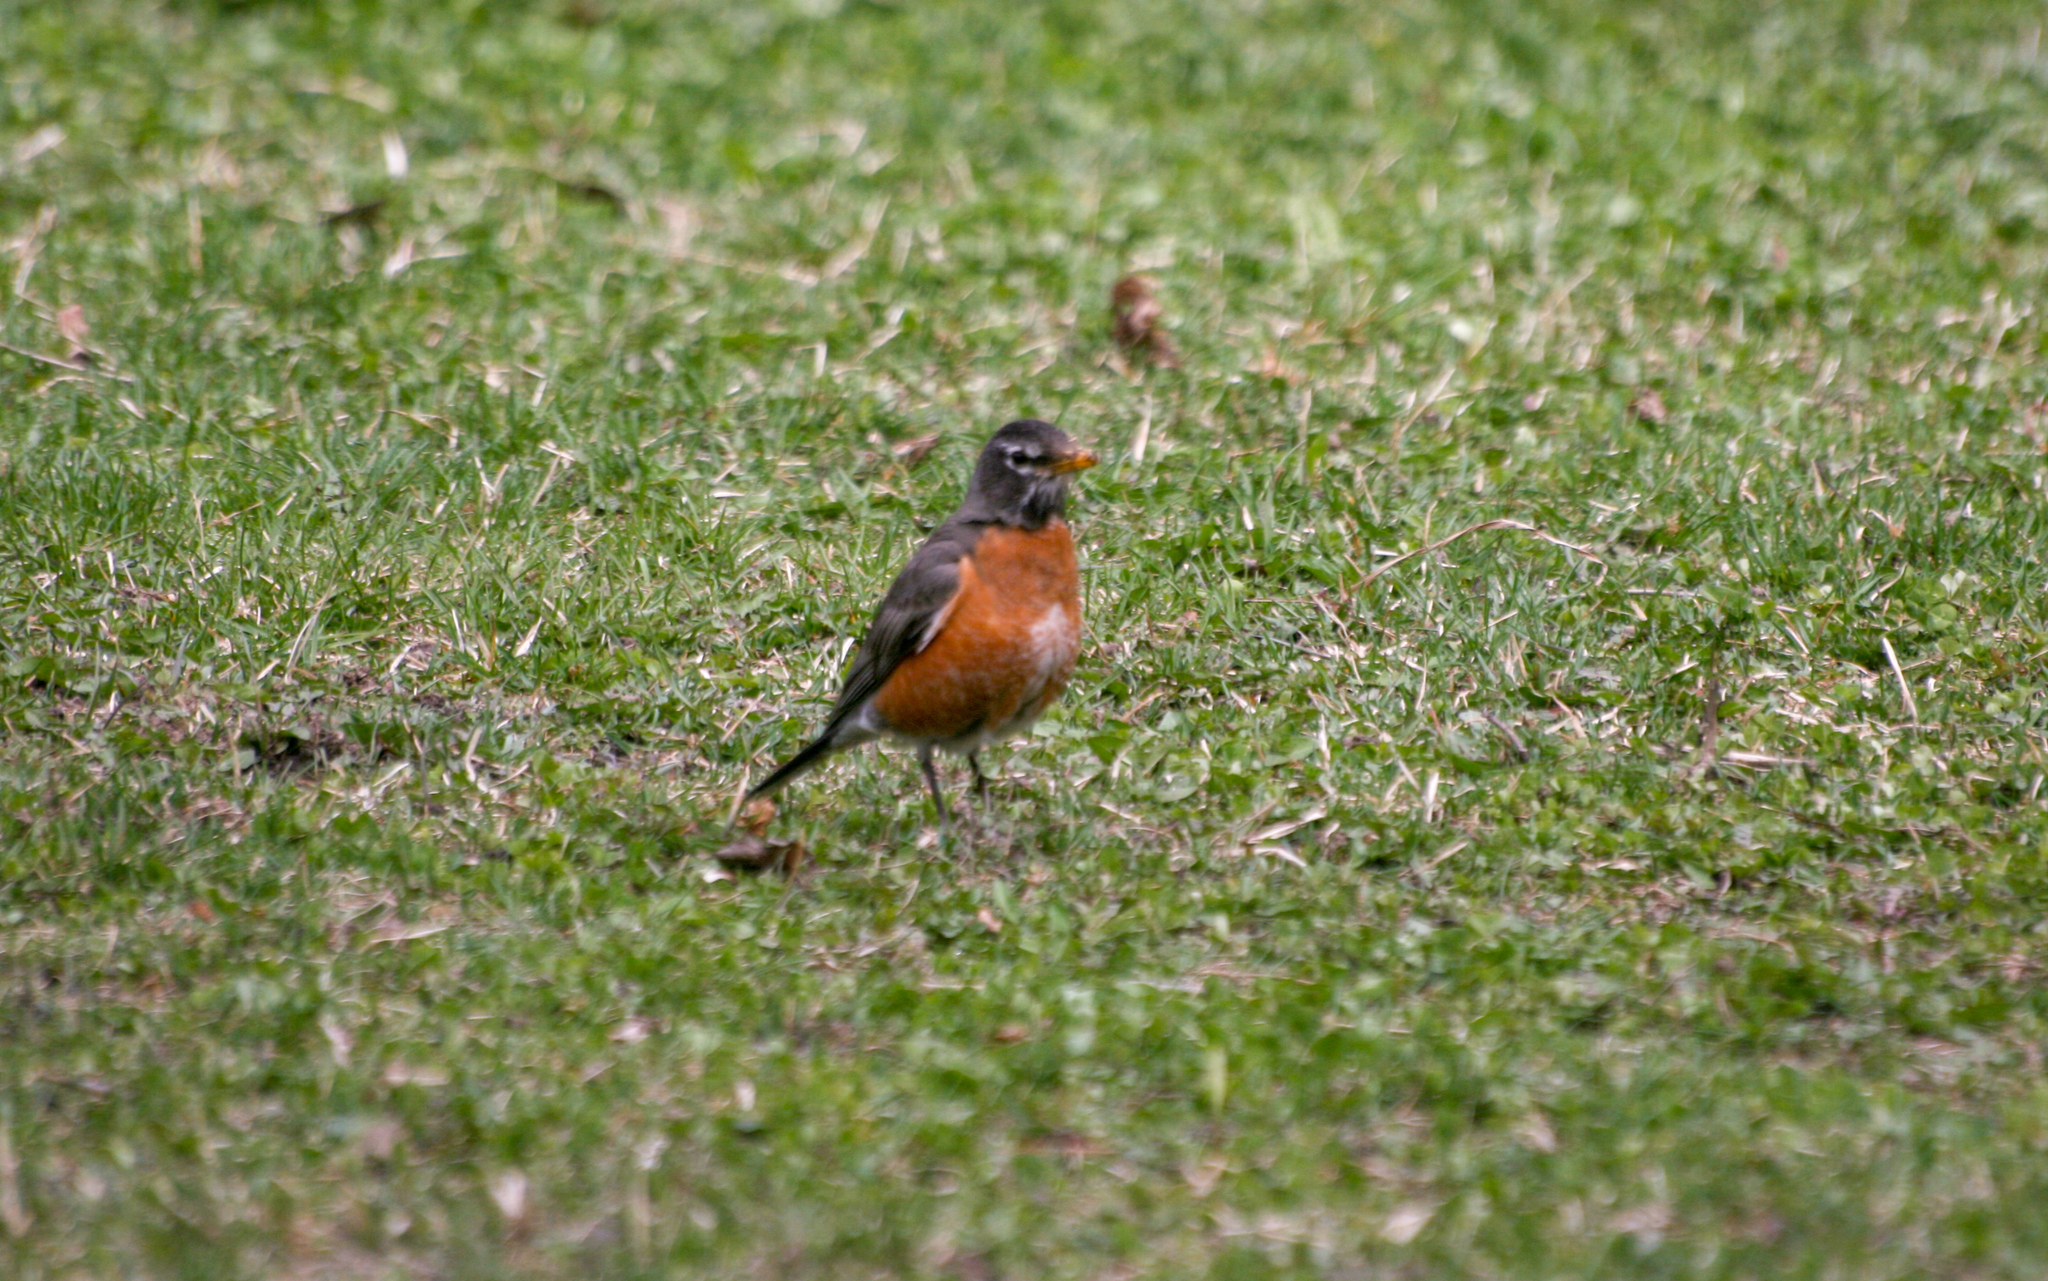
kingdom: Animalia
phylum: Chordata
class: Aves
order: Passeriformes
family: Turdidae
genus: Turdus
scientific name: Turdus migratorius
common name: American robin
